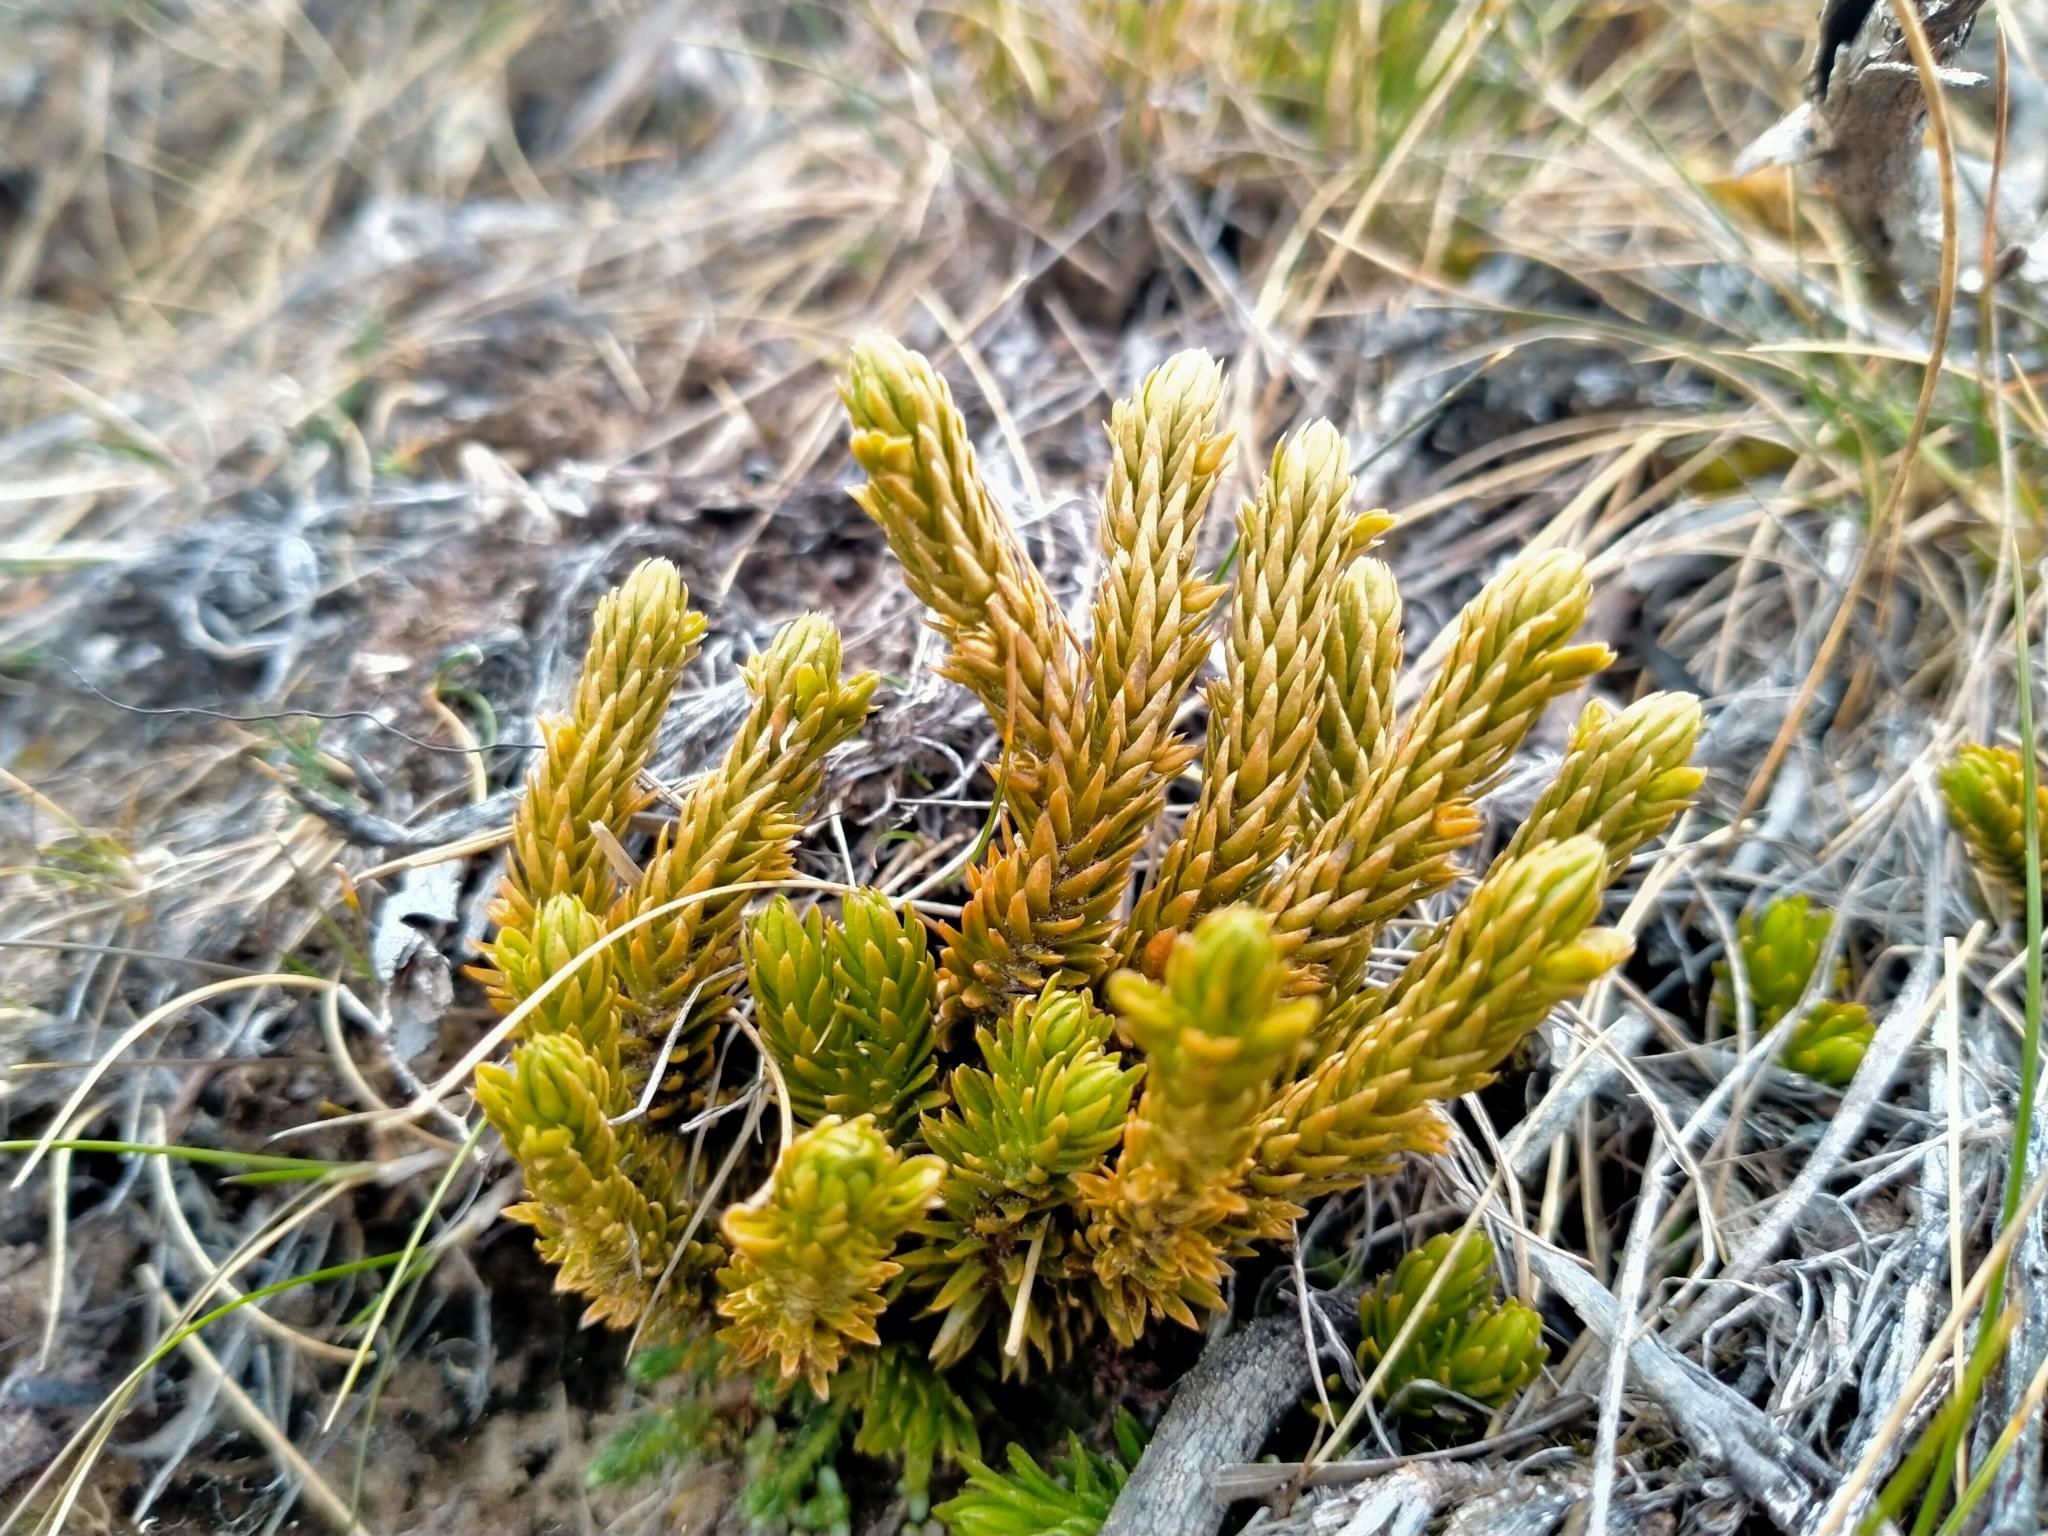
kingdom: Plantae
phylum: Tracheophyta
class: Lycopodiopsida
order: Lycopodiales
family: Lycopodiaceae
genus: Huperzia
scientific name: Huperzia australiana
